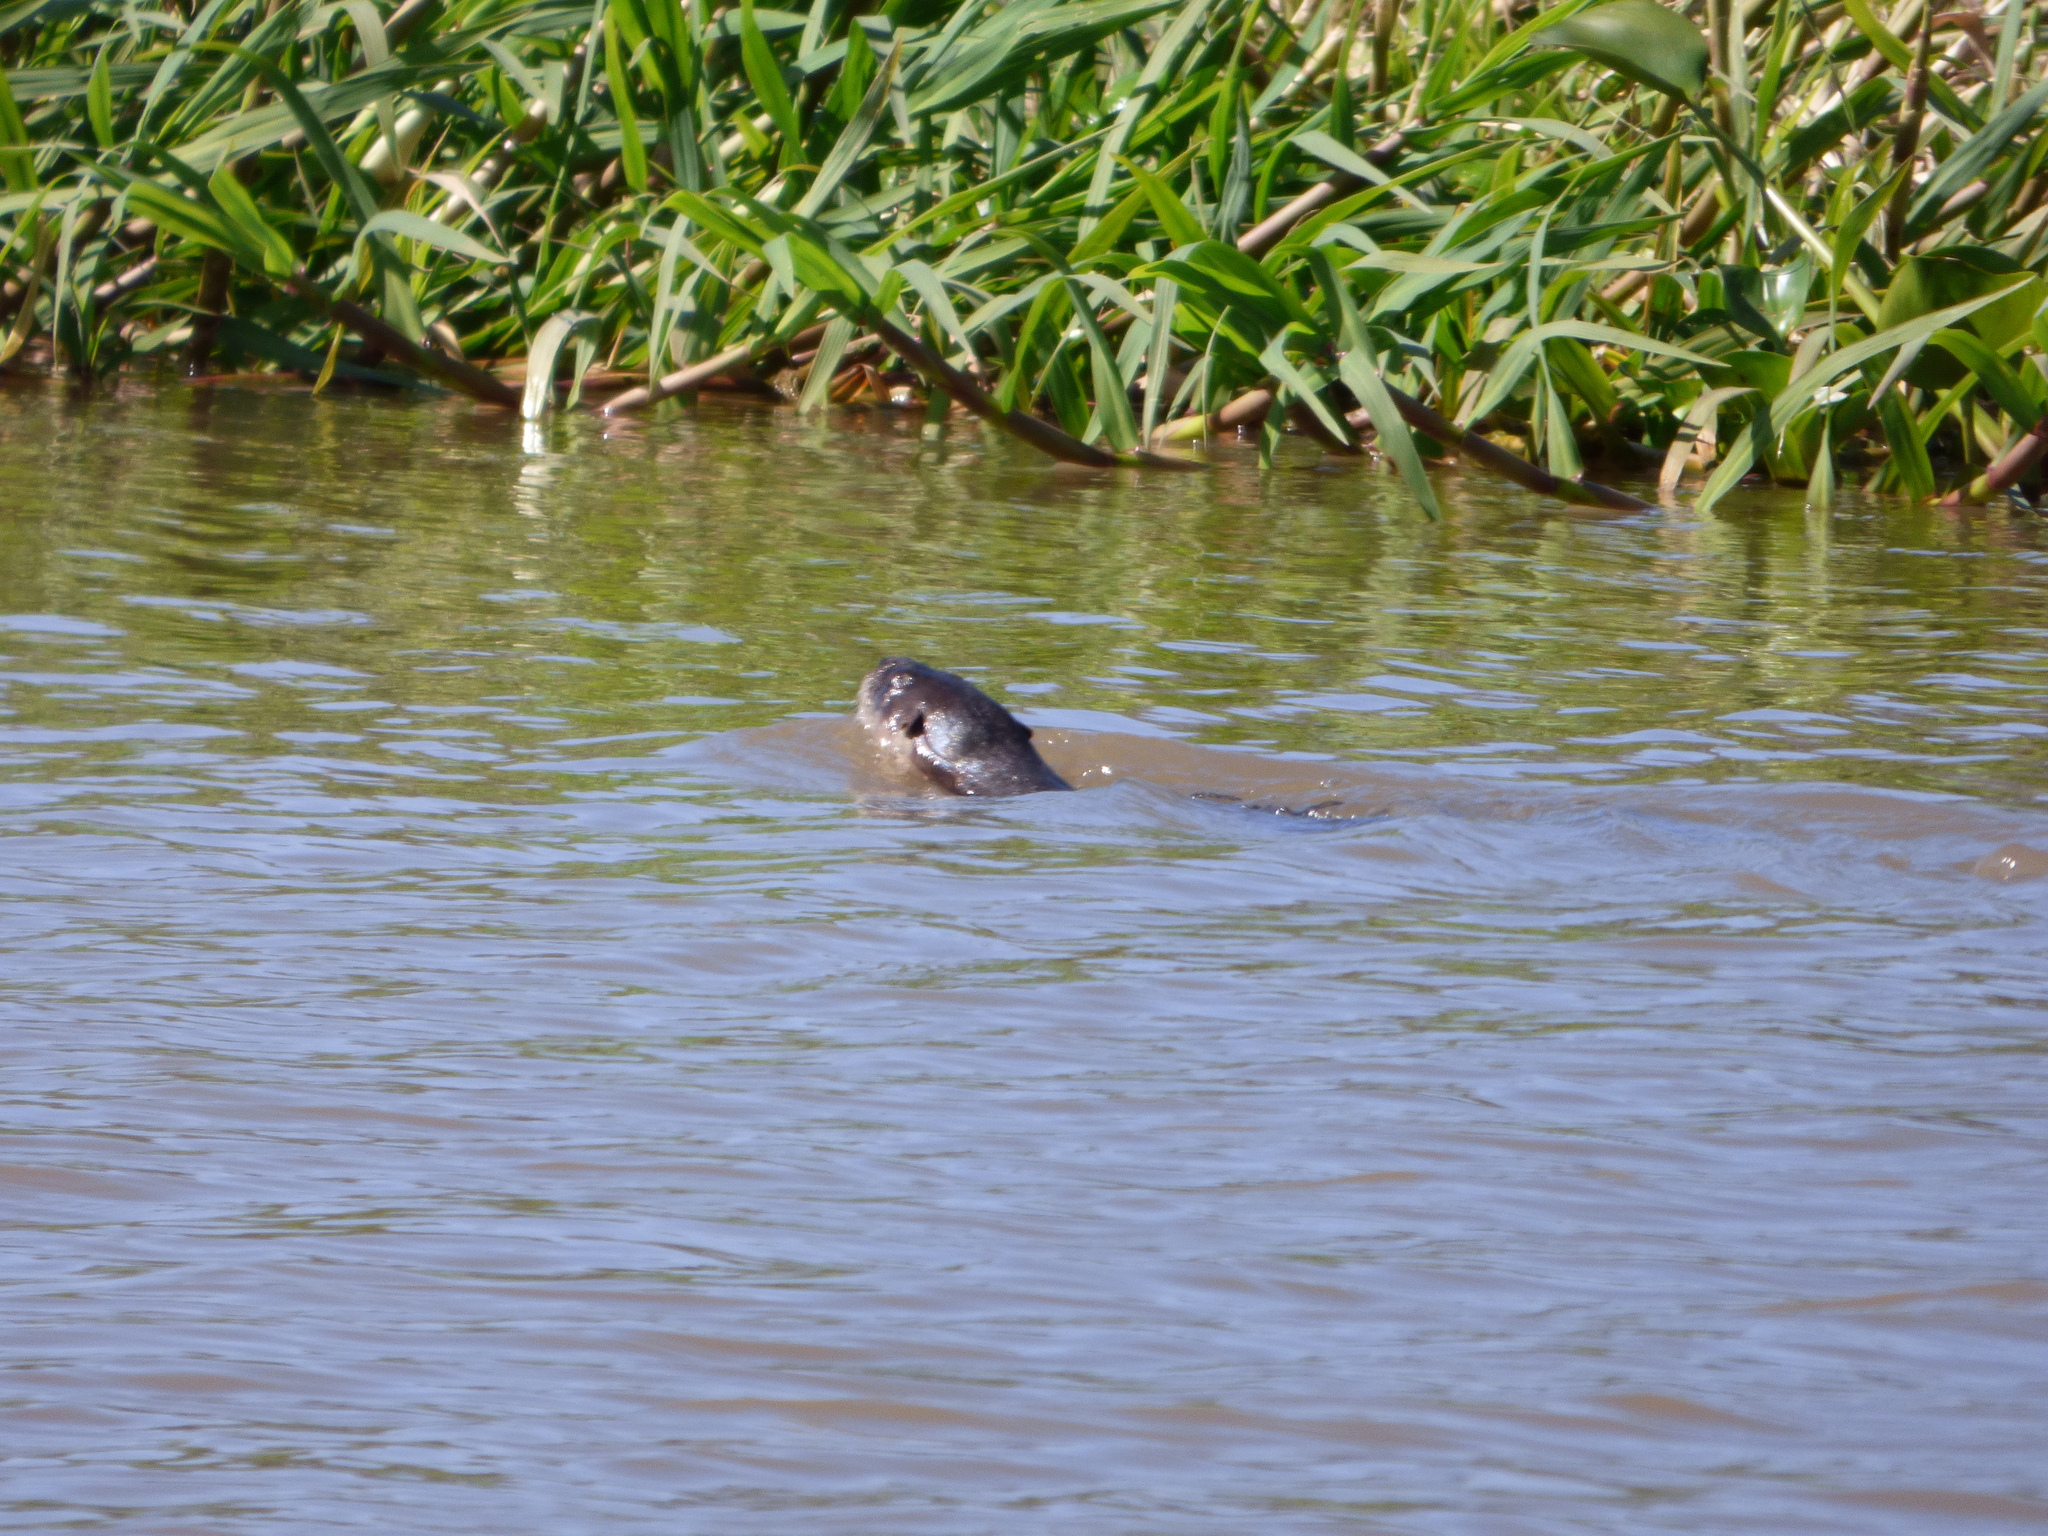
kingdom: Animalia
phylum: Chordata
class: Mammalia
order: Carnivora
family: Mustelidae
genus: Lontra
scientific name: Lontra longicaudis
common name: Neotropical otter
